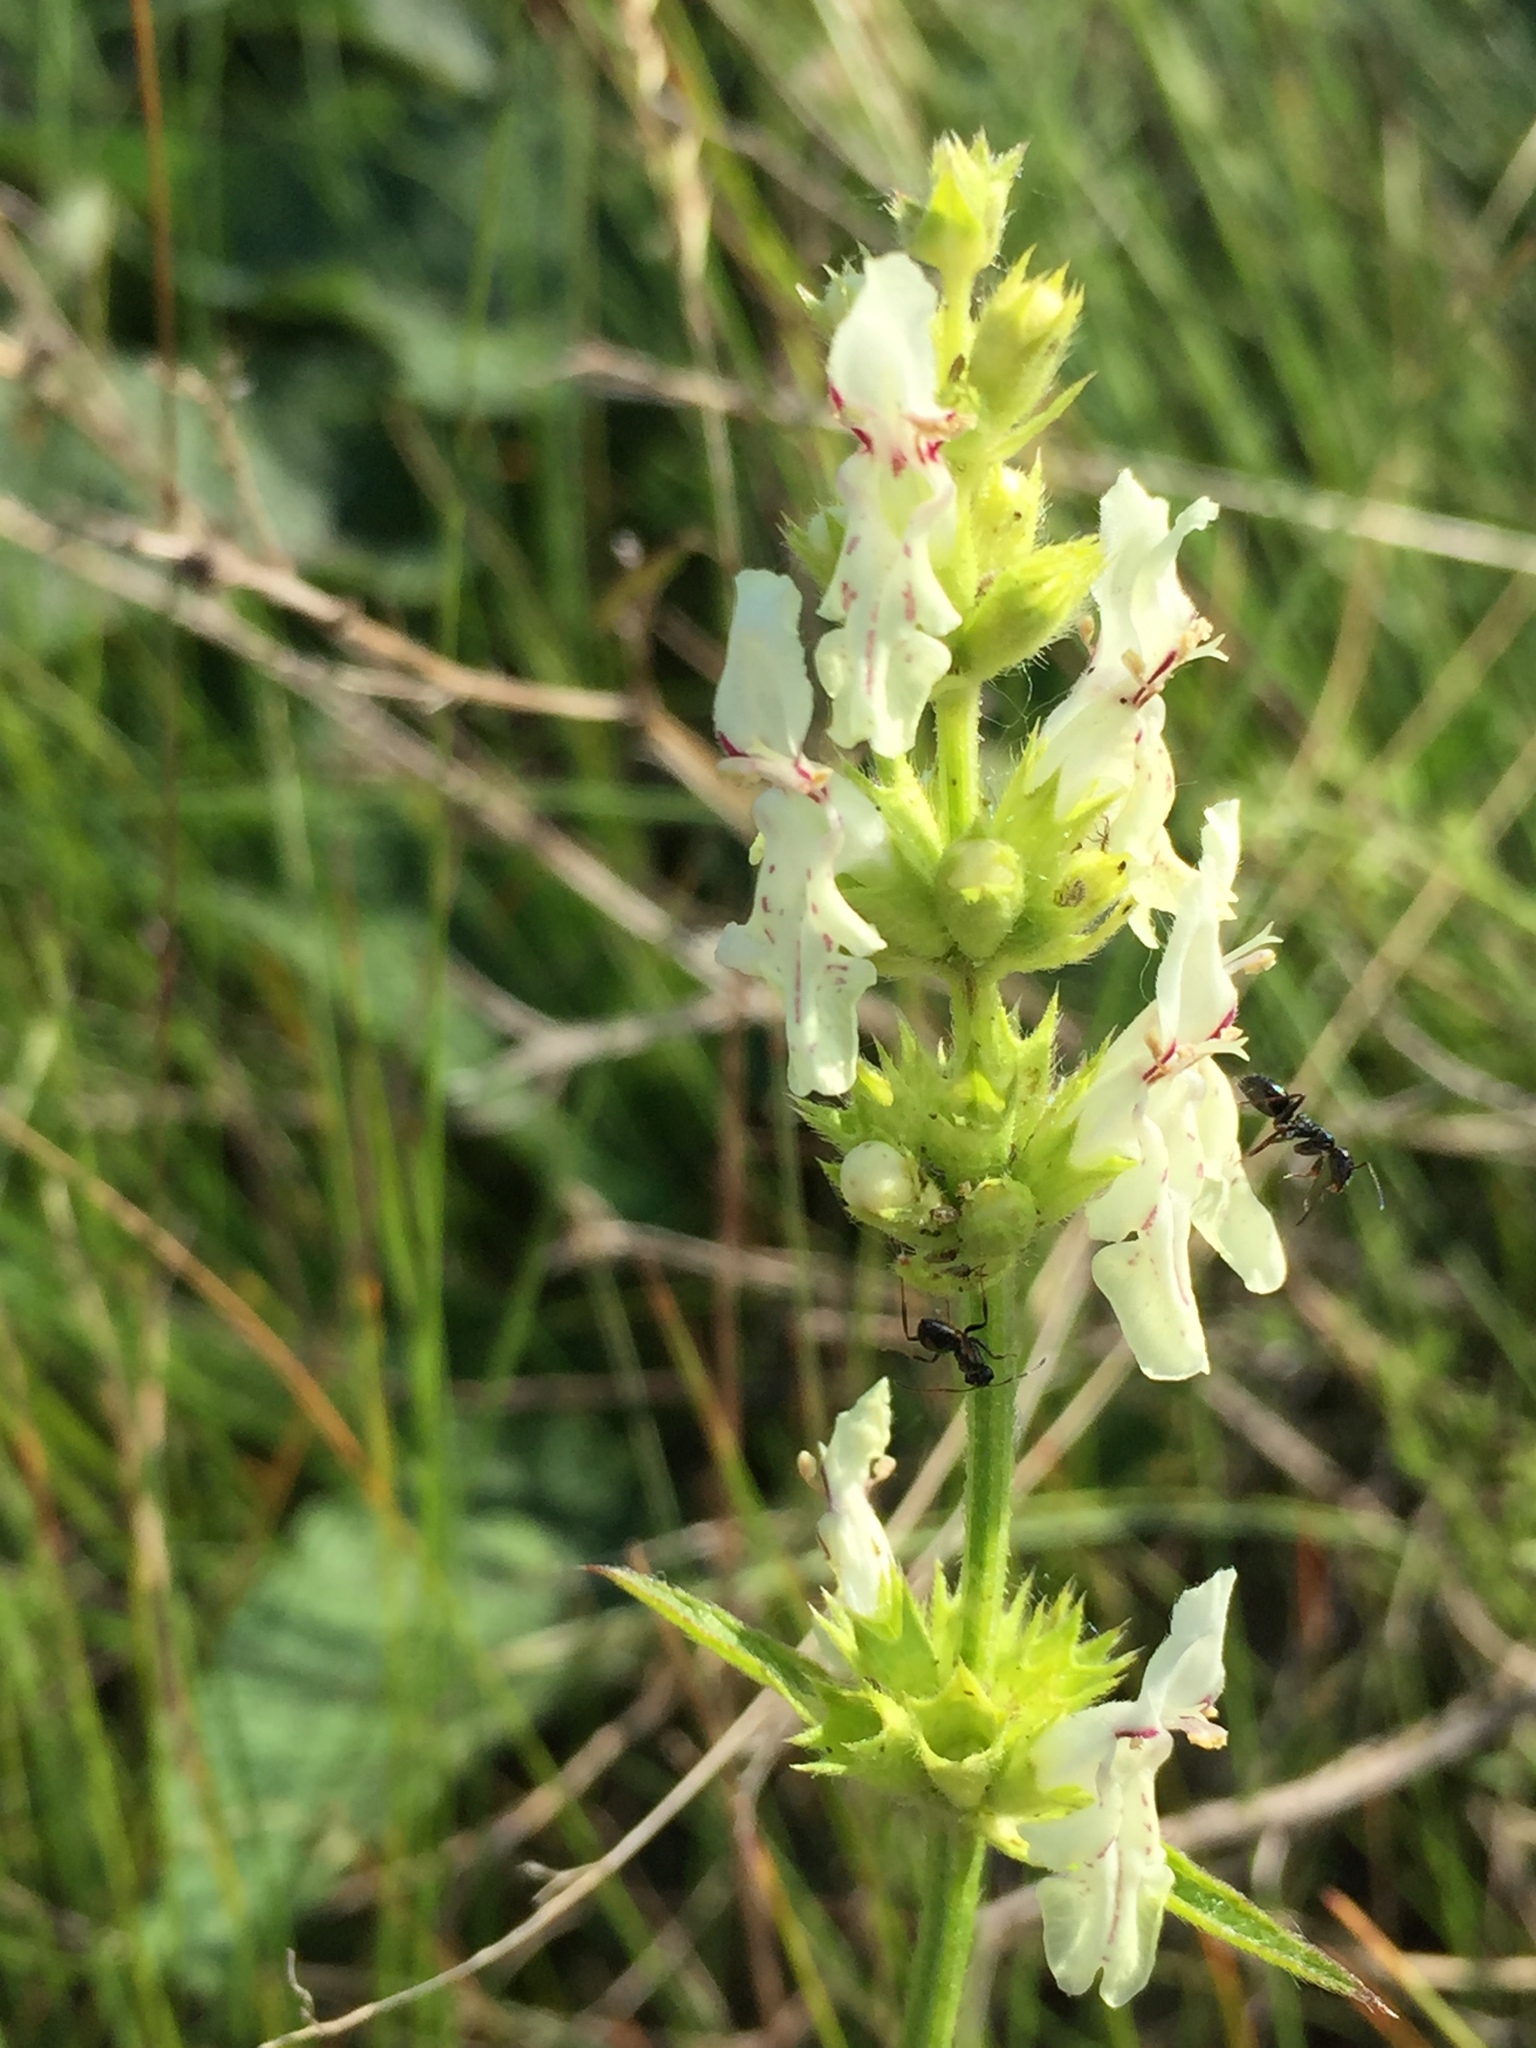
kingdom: Plantae
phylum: Tracheophyta
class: Magnoliopsida
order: Lamiales
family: Lamiaceae
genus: Stachys
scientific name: Stachys recta
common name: Perennial yellow-woundwort
